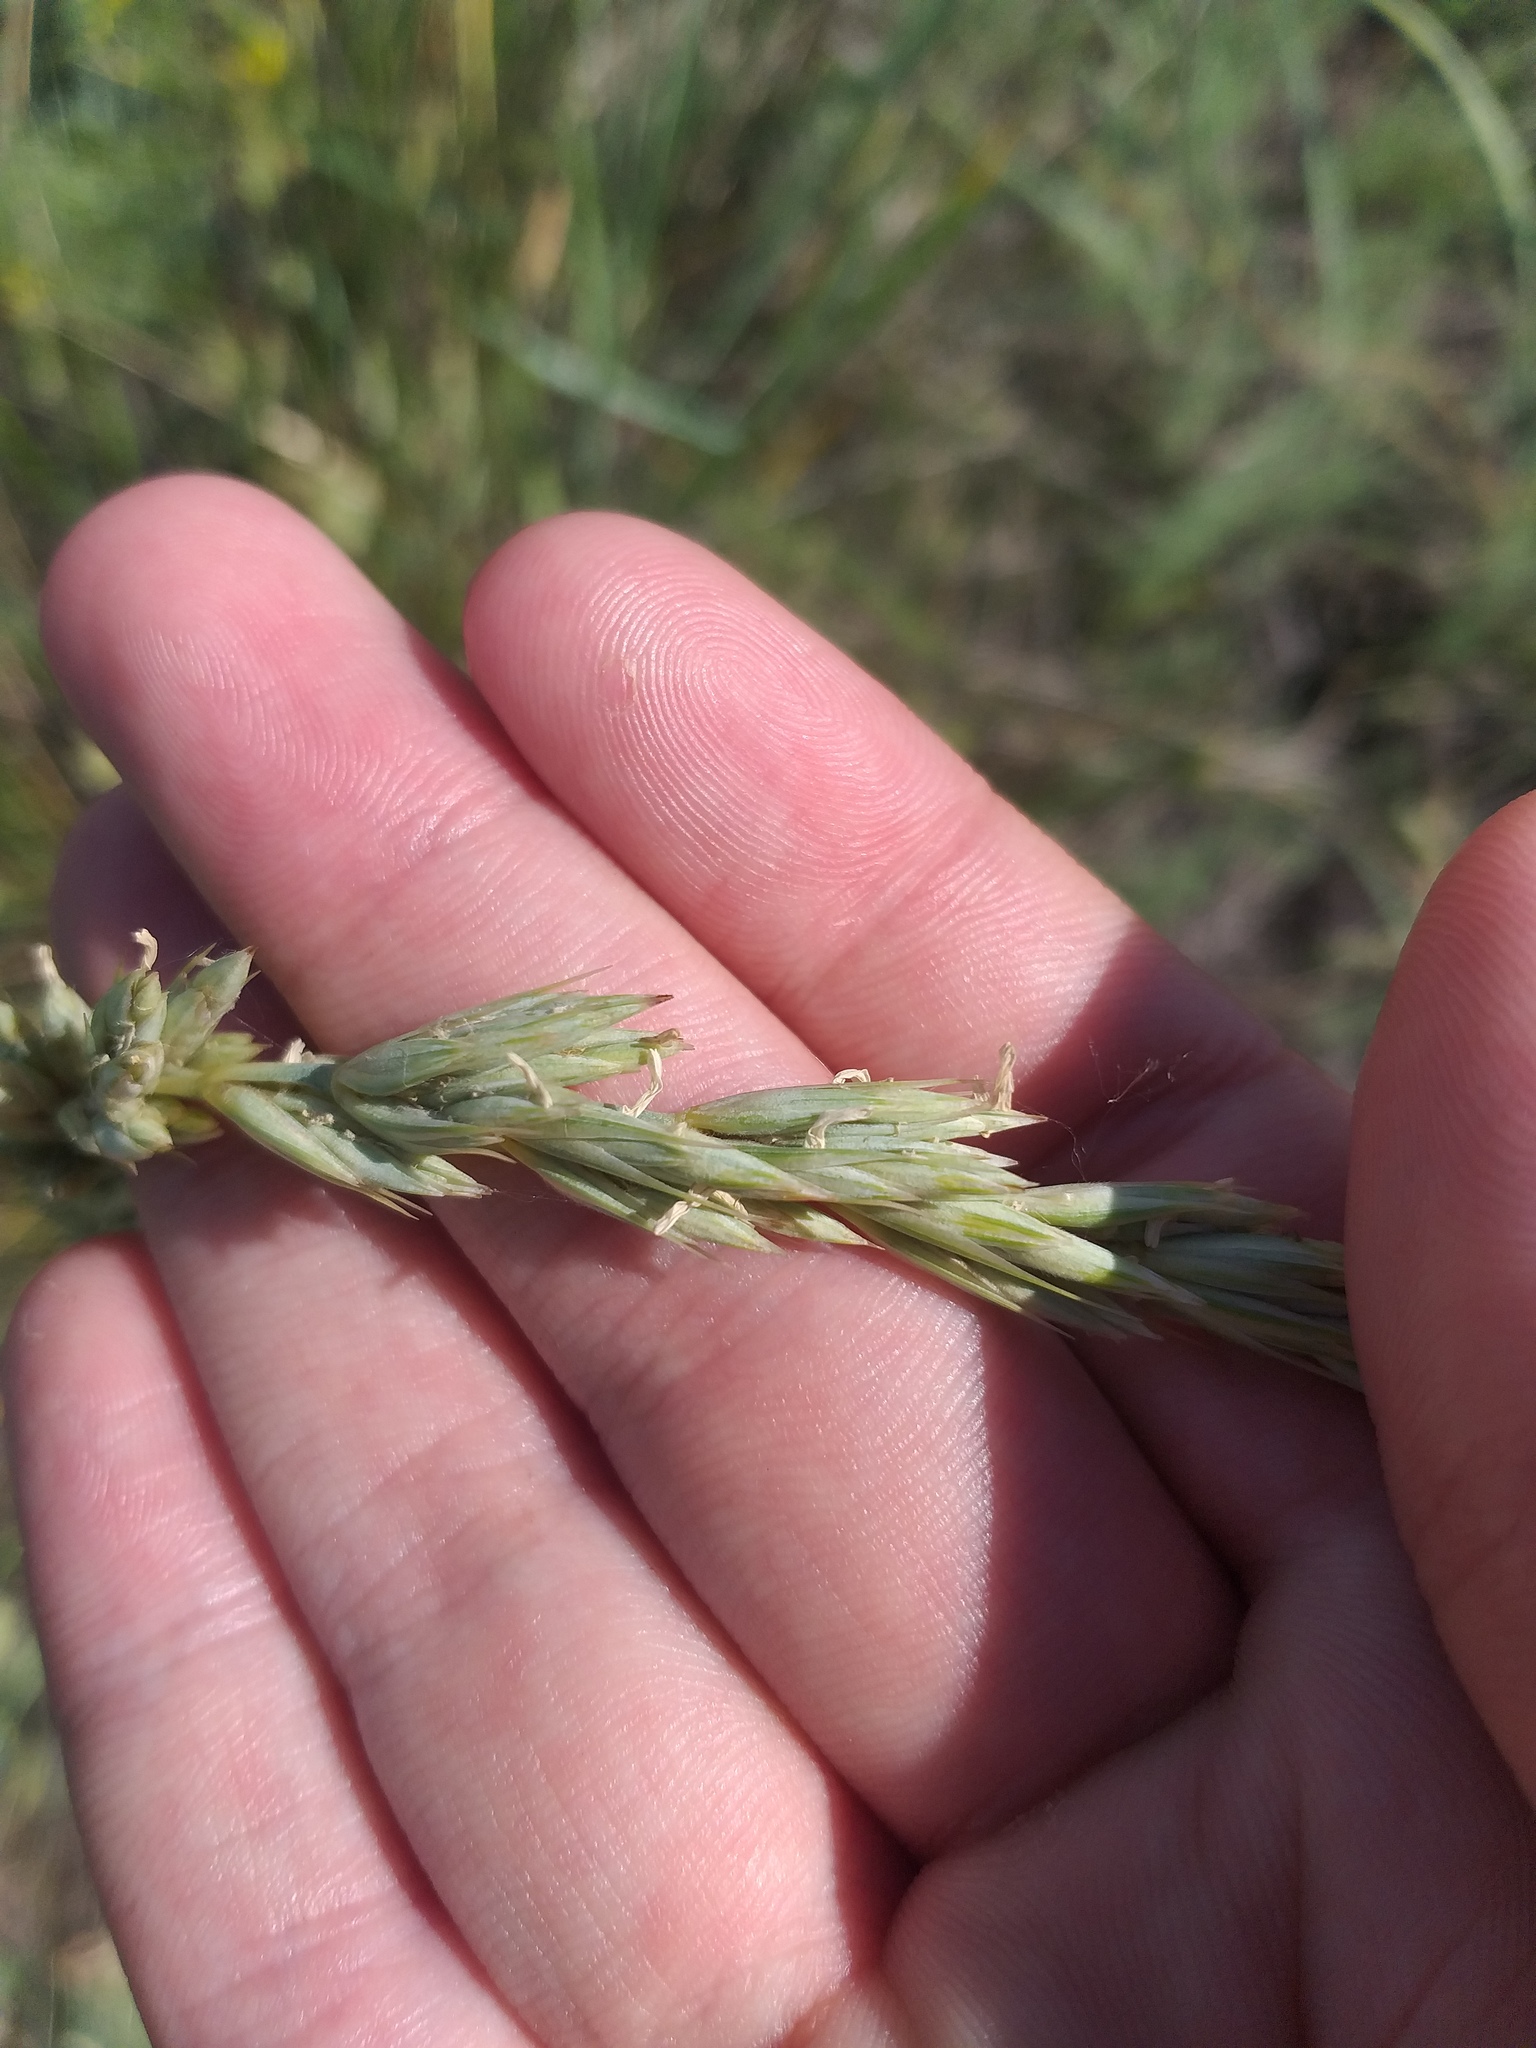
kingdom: Plantae
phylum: Tracheophyta
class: Liliopsida
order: Poales
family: Poaceae
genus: Leymus
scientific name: Leymus racemosus
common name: Mammoth wildrye
